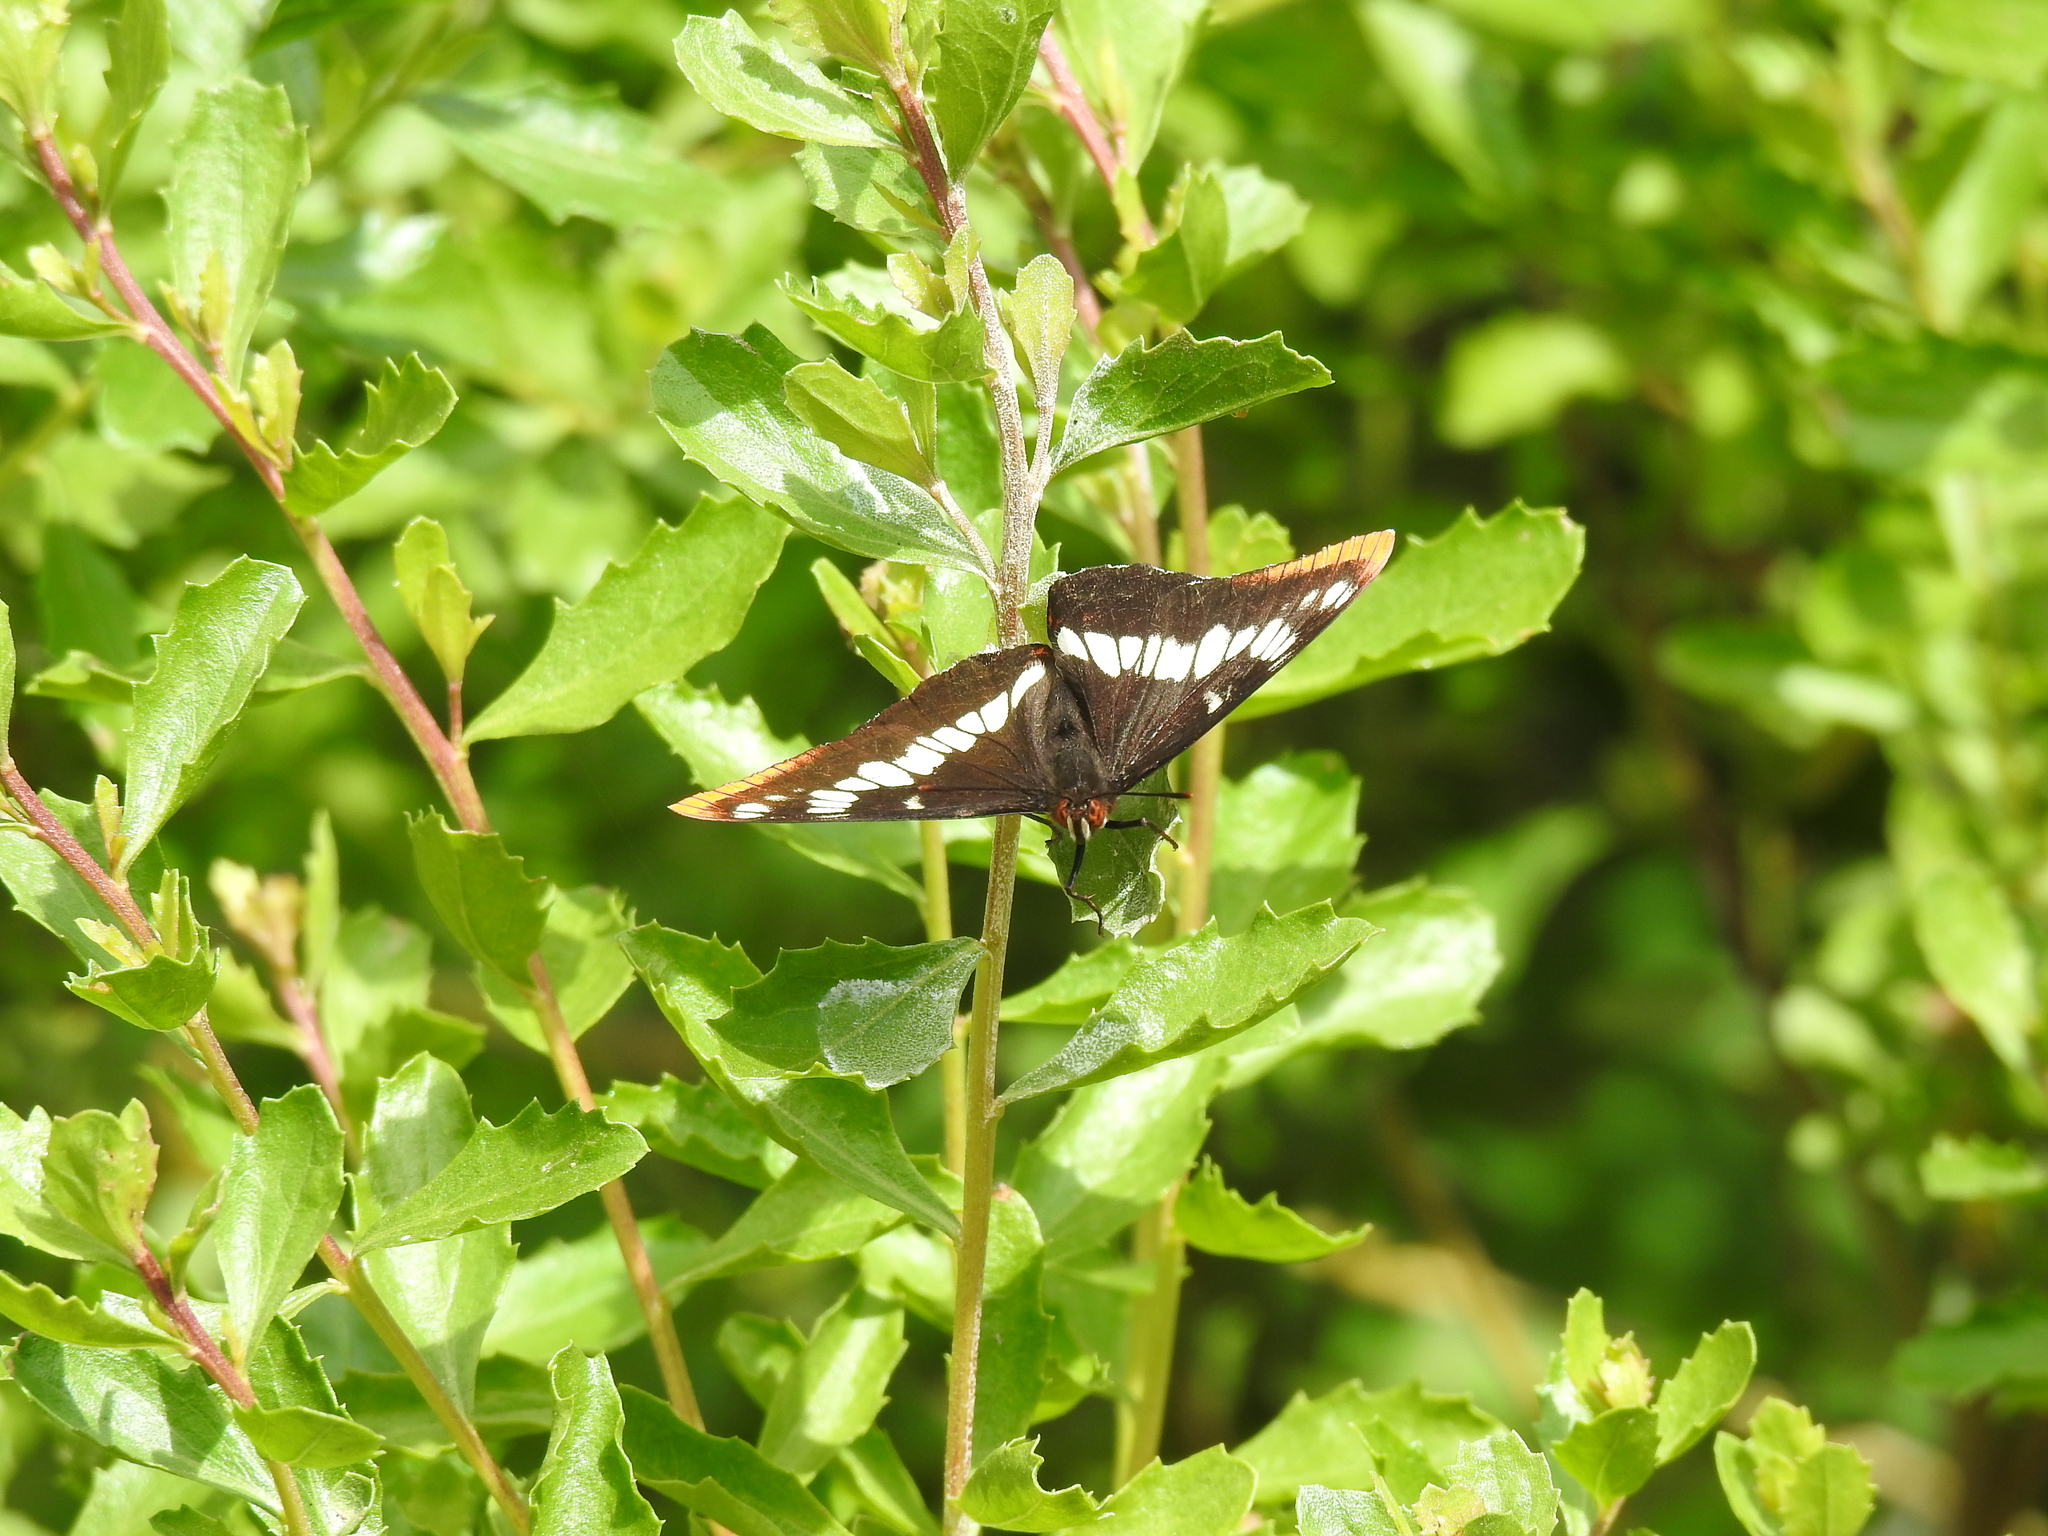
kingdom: Animalia
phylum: Arthropoda
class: Insecta
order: Lepidoptera
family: Nymphalidae
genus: Limenitis
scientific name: Limenitis lorquini
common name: Lorquin's admiral
